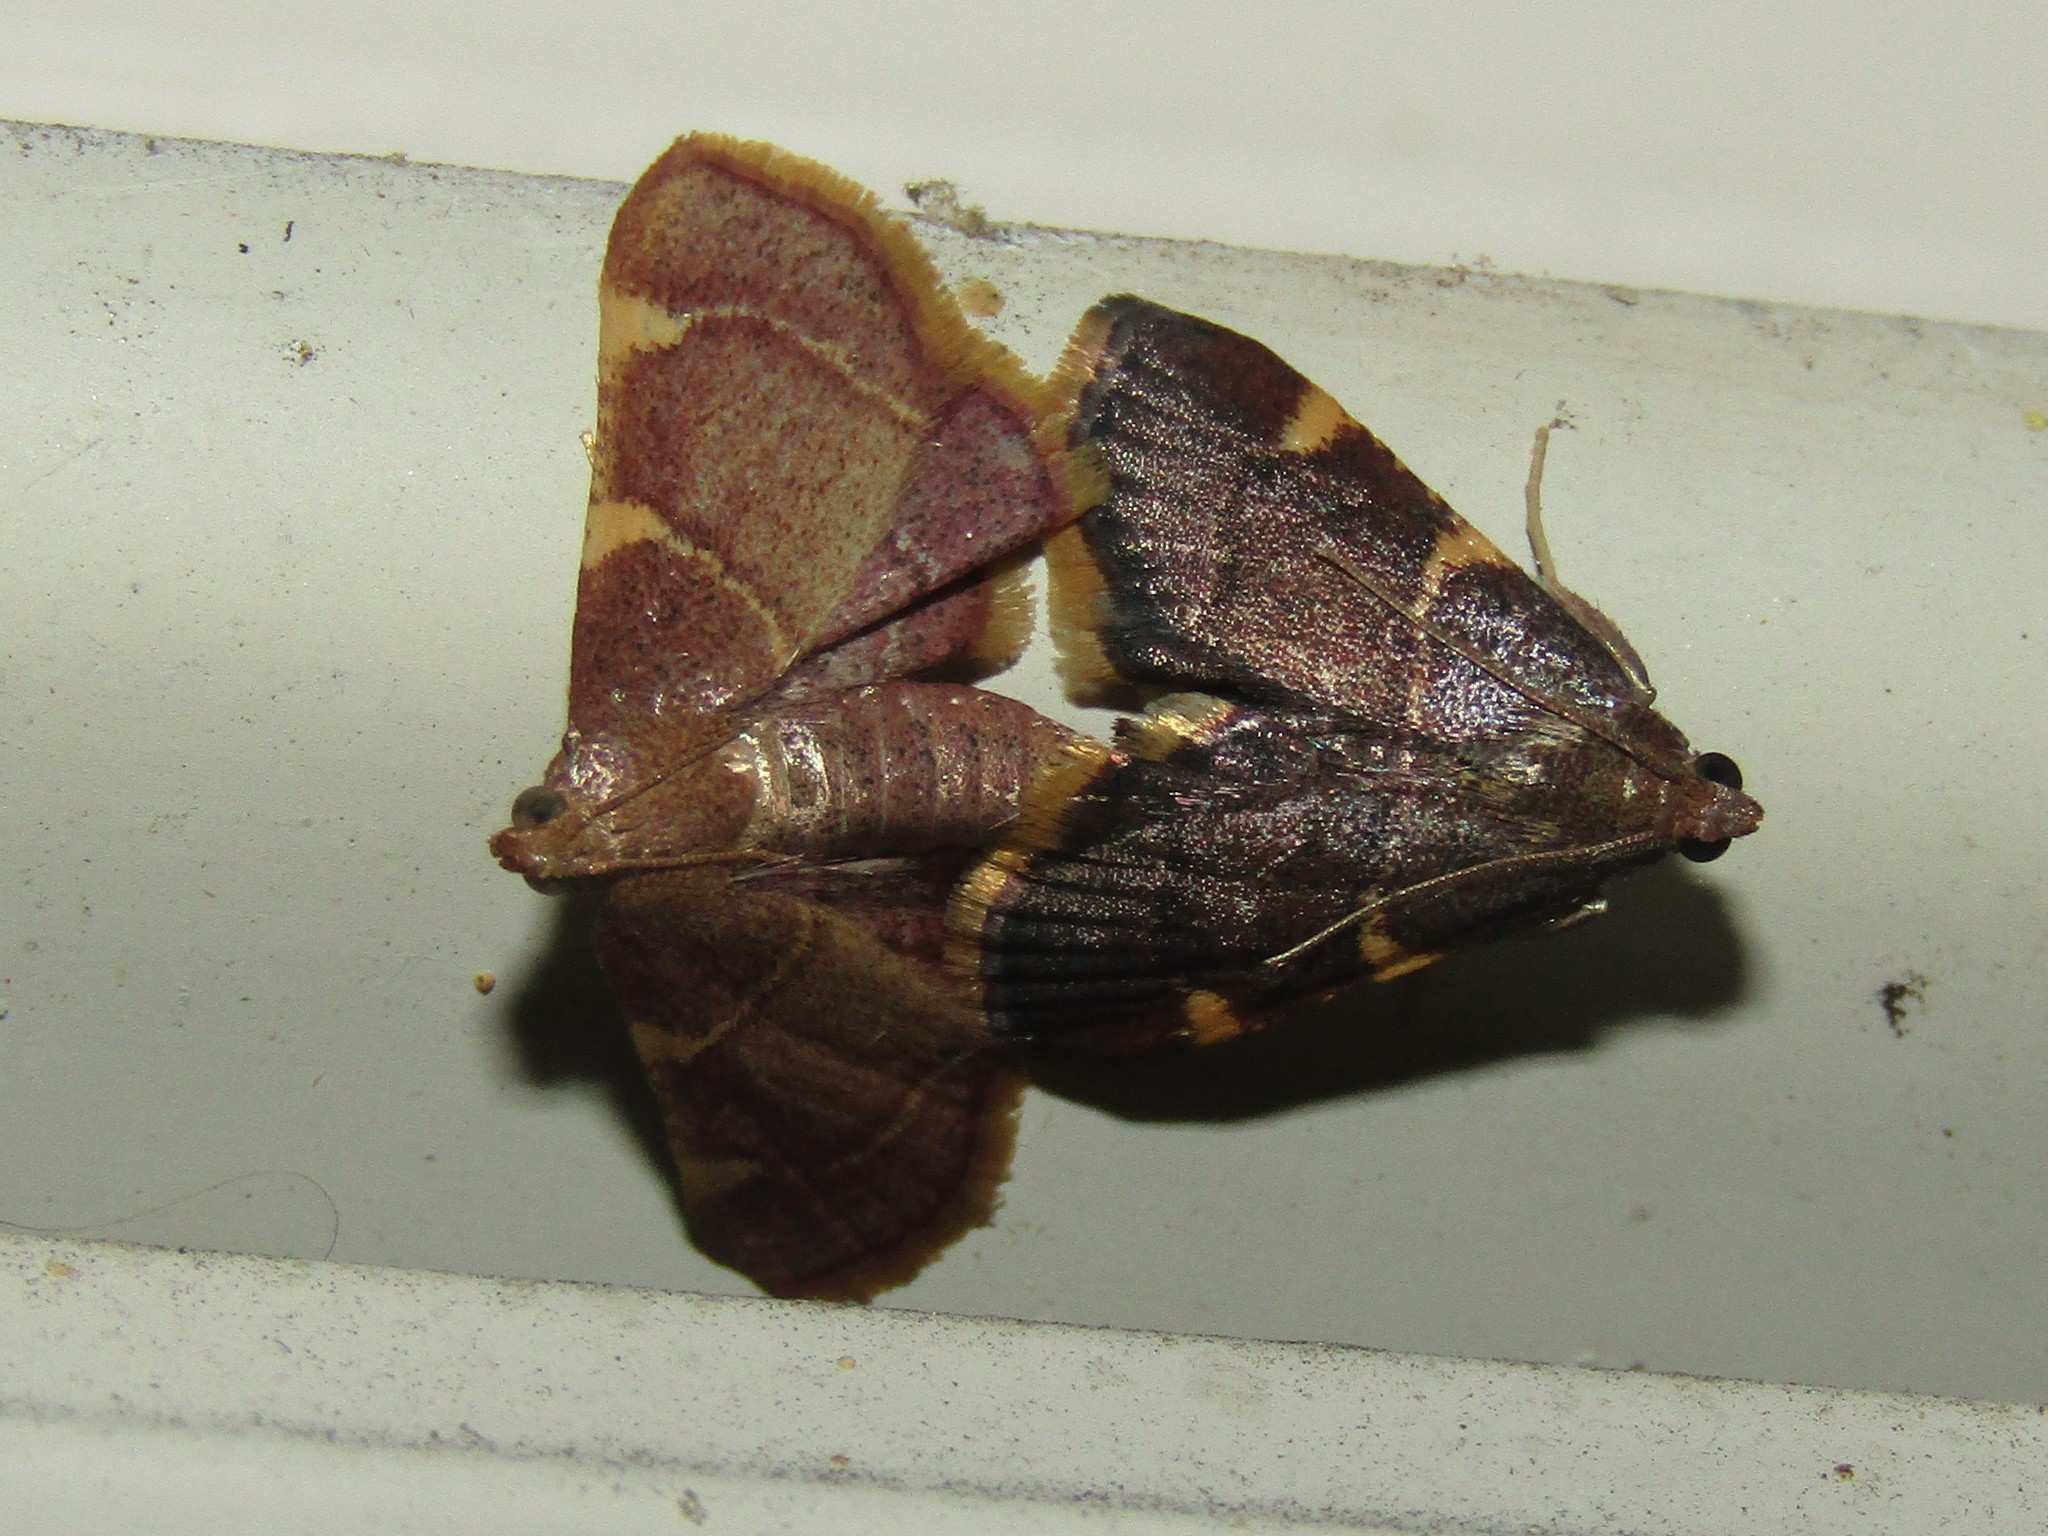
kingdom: Animalia
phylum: Arthropoda
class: Insecta
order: Lepidoptera
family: Pyralidae
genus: Hypsopygia
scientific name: Hypsopygia olinalis
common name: Yellow-fringed dolichomia moth
